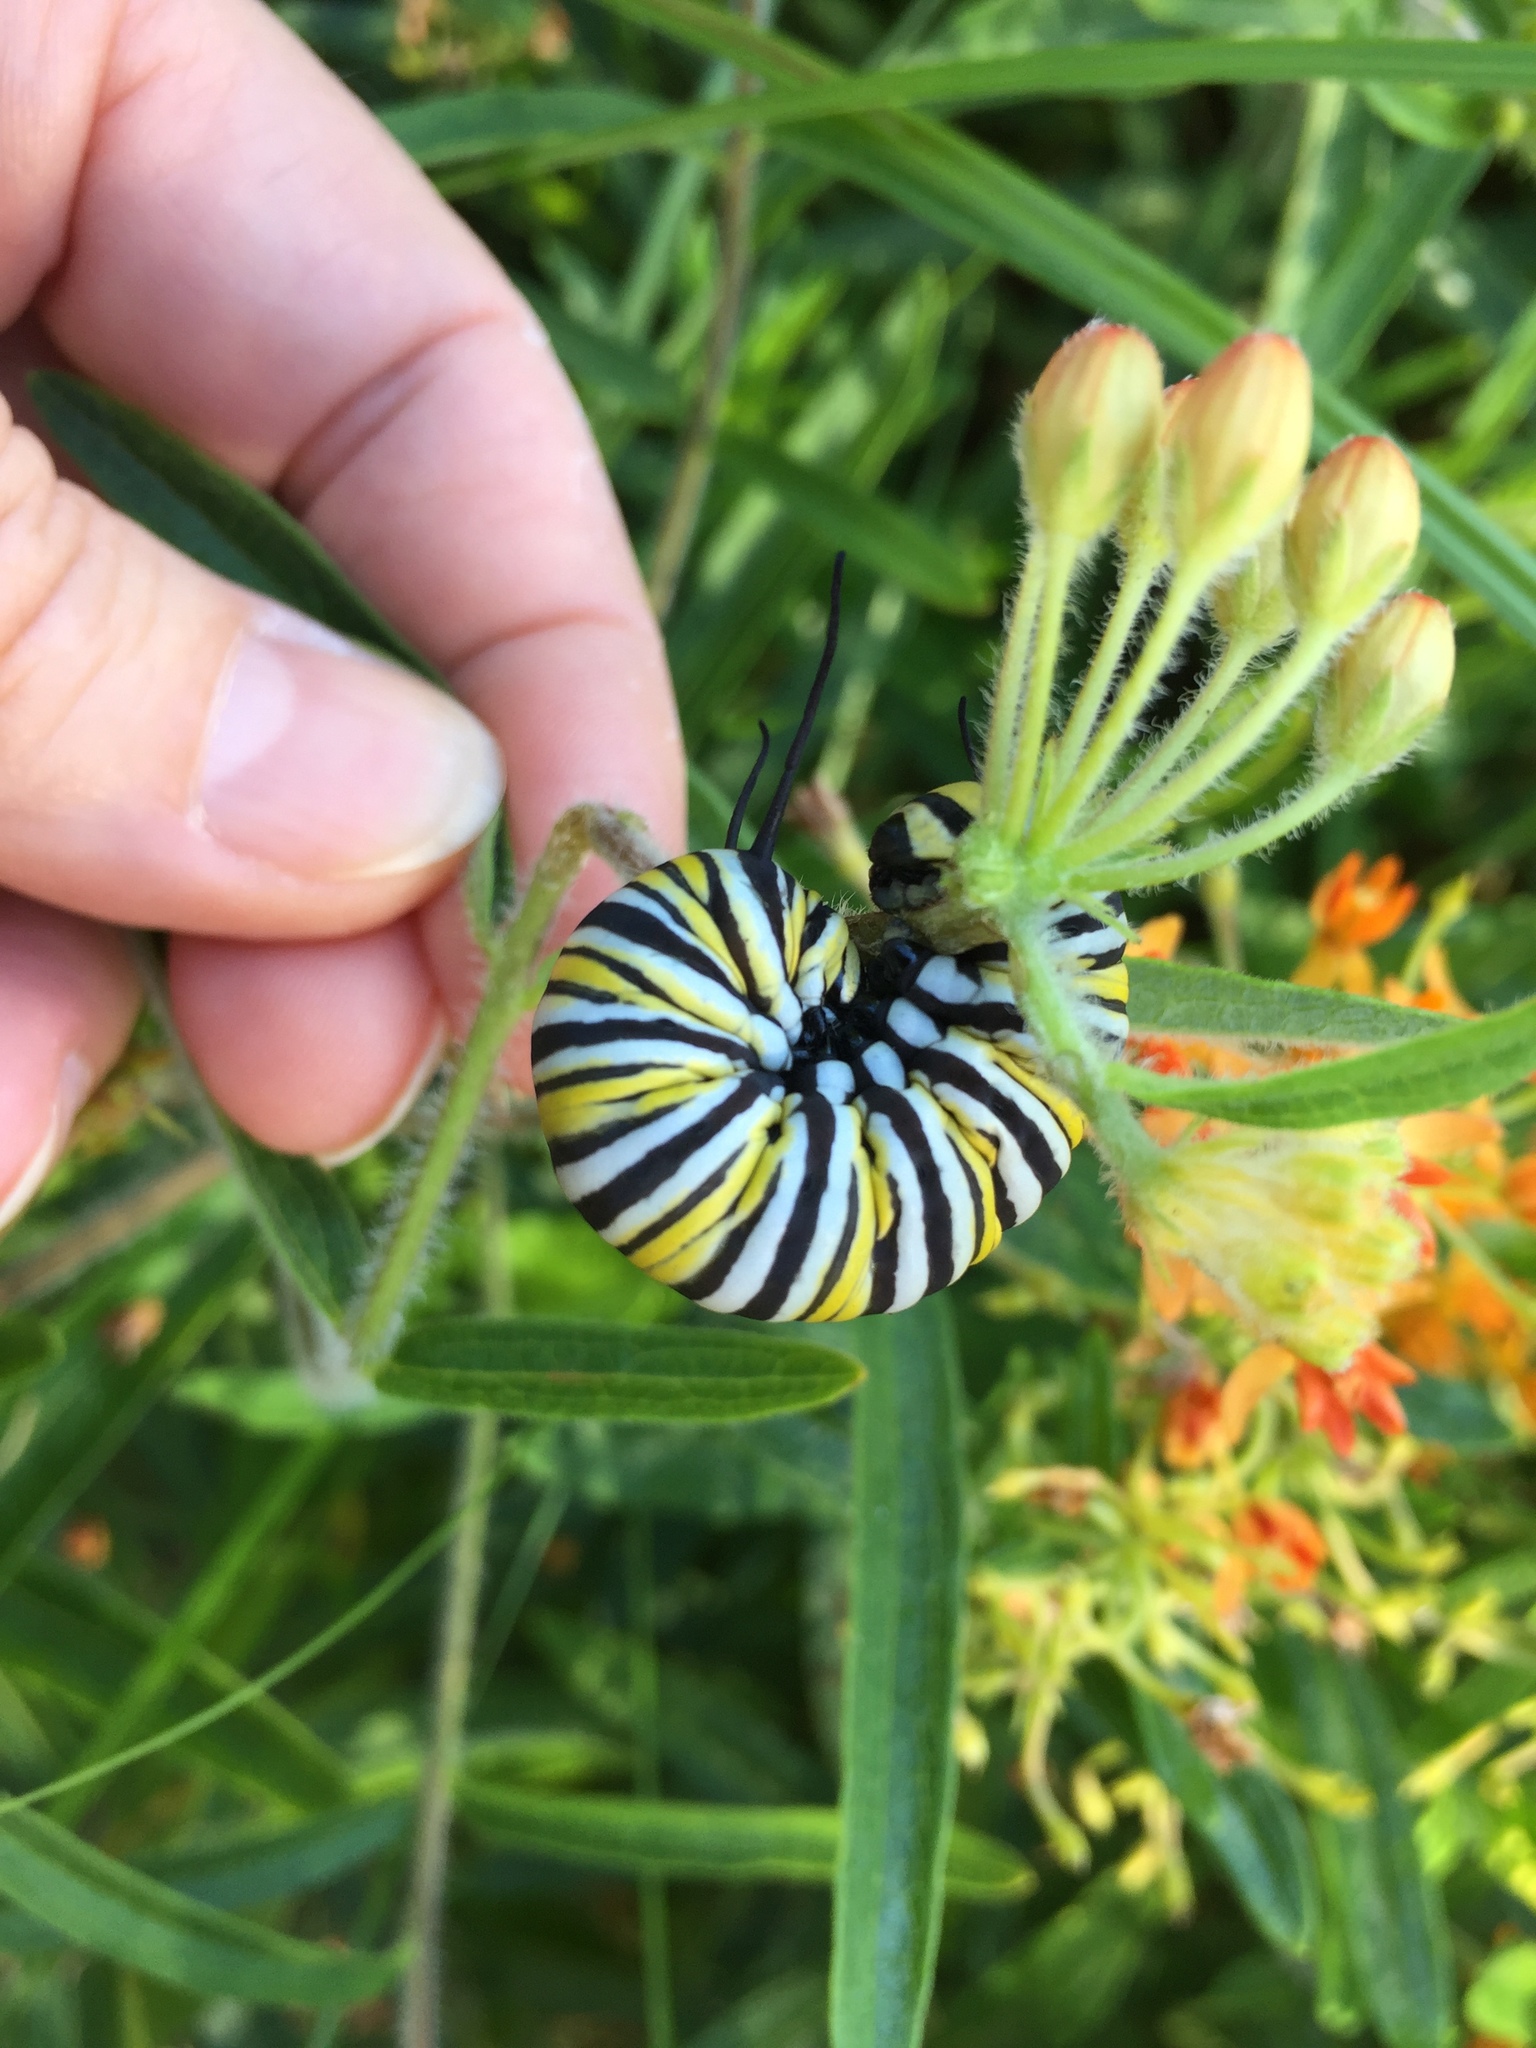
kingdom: Animalia
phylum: Arthropoda
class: Insecta
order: Lepidoptera
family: Nymphalidae
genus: Danaus
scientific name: Danaus plexippus
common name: Monarch
